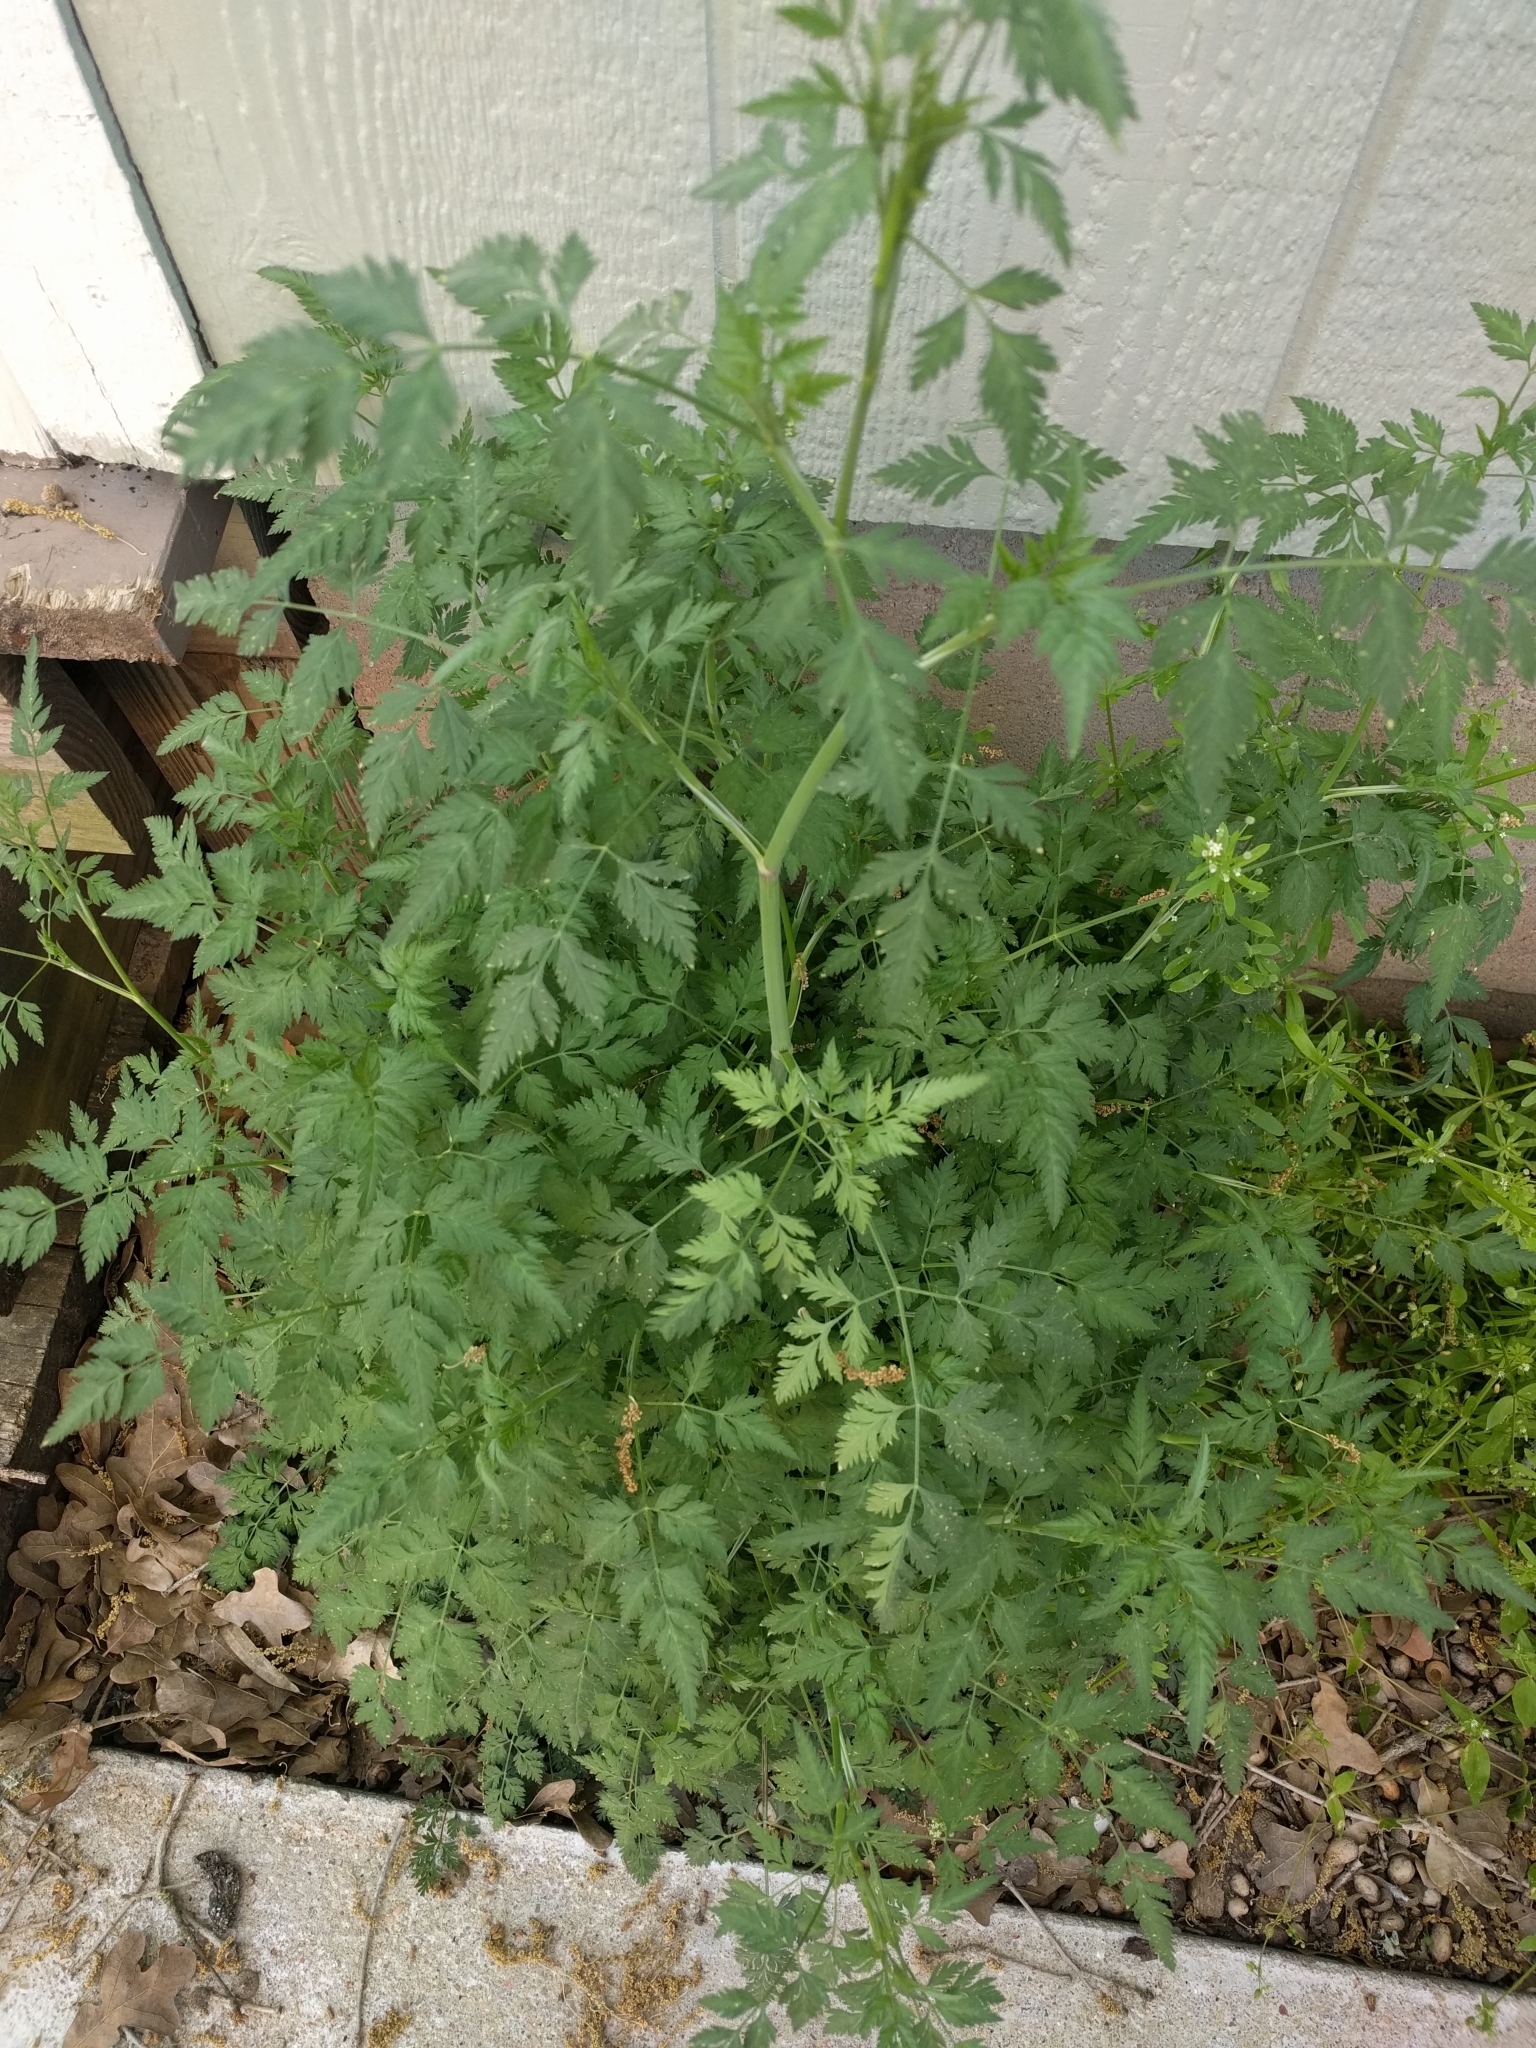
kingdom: Plantae
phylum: Tracheophyta
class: Magnoliopsida
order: Apiales
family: Apiaceae
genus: Torilis
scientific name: Torilis arvensis
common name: Spreading hedge-parsley
